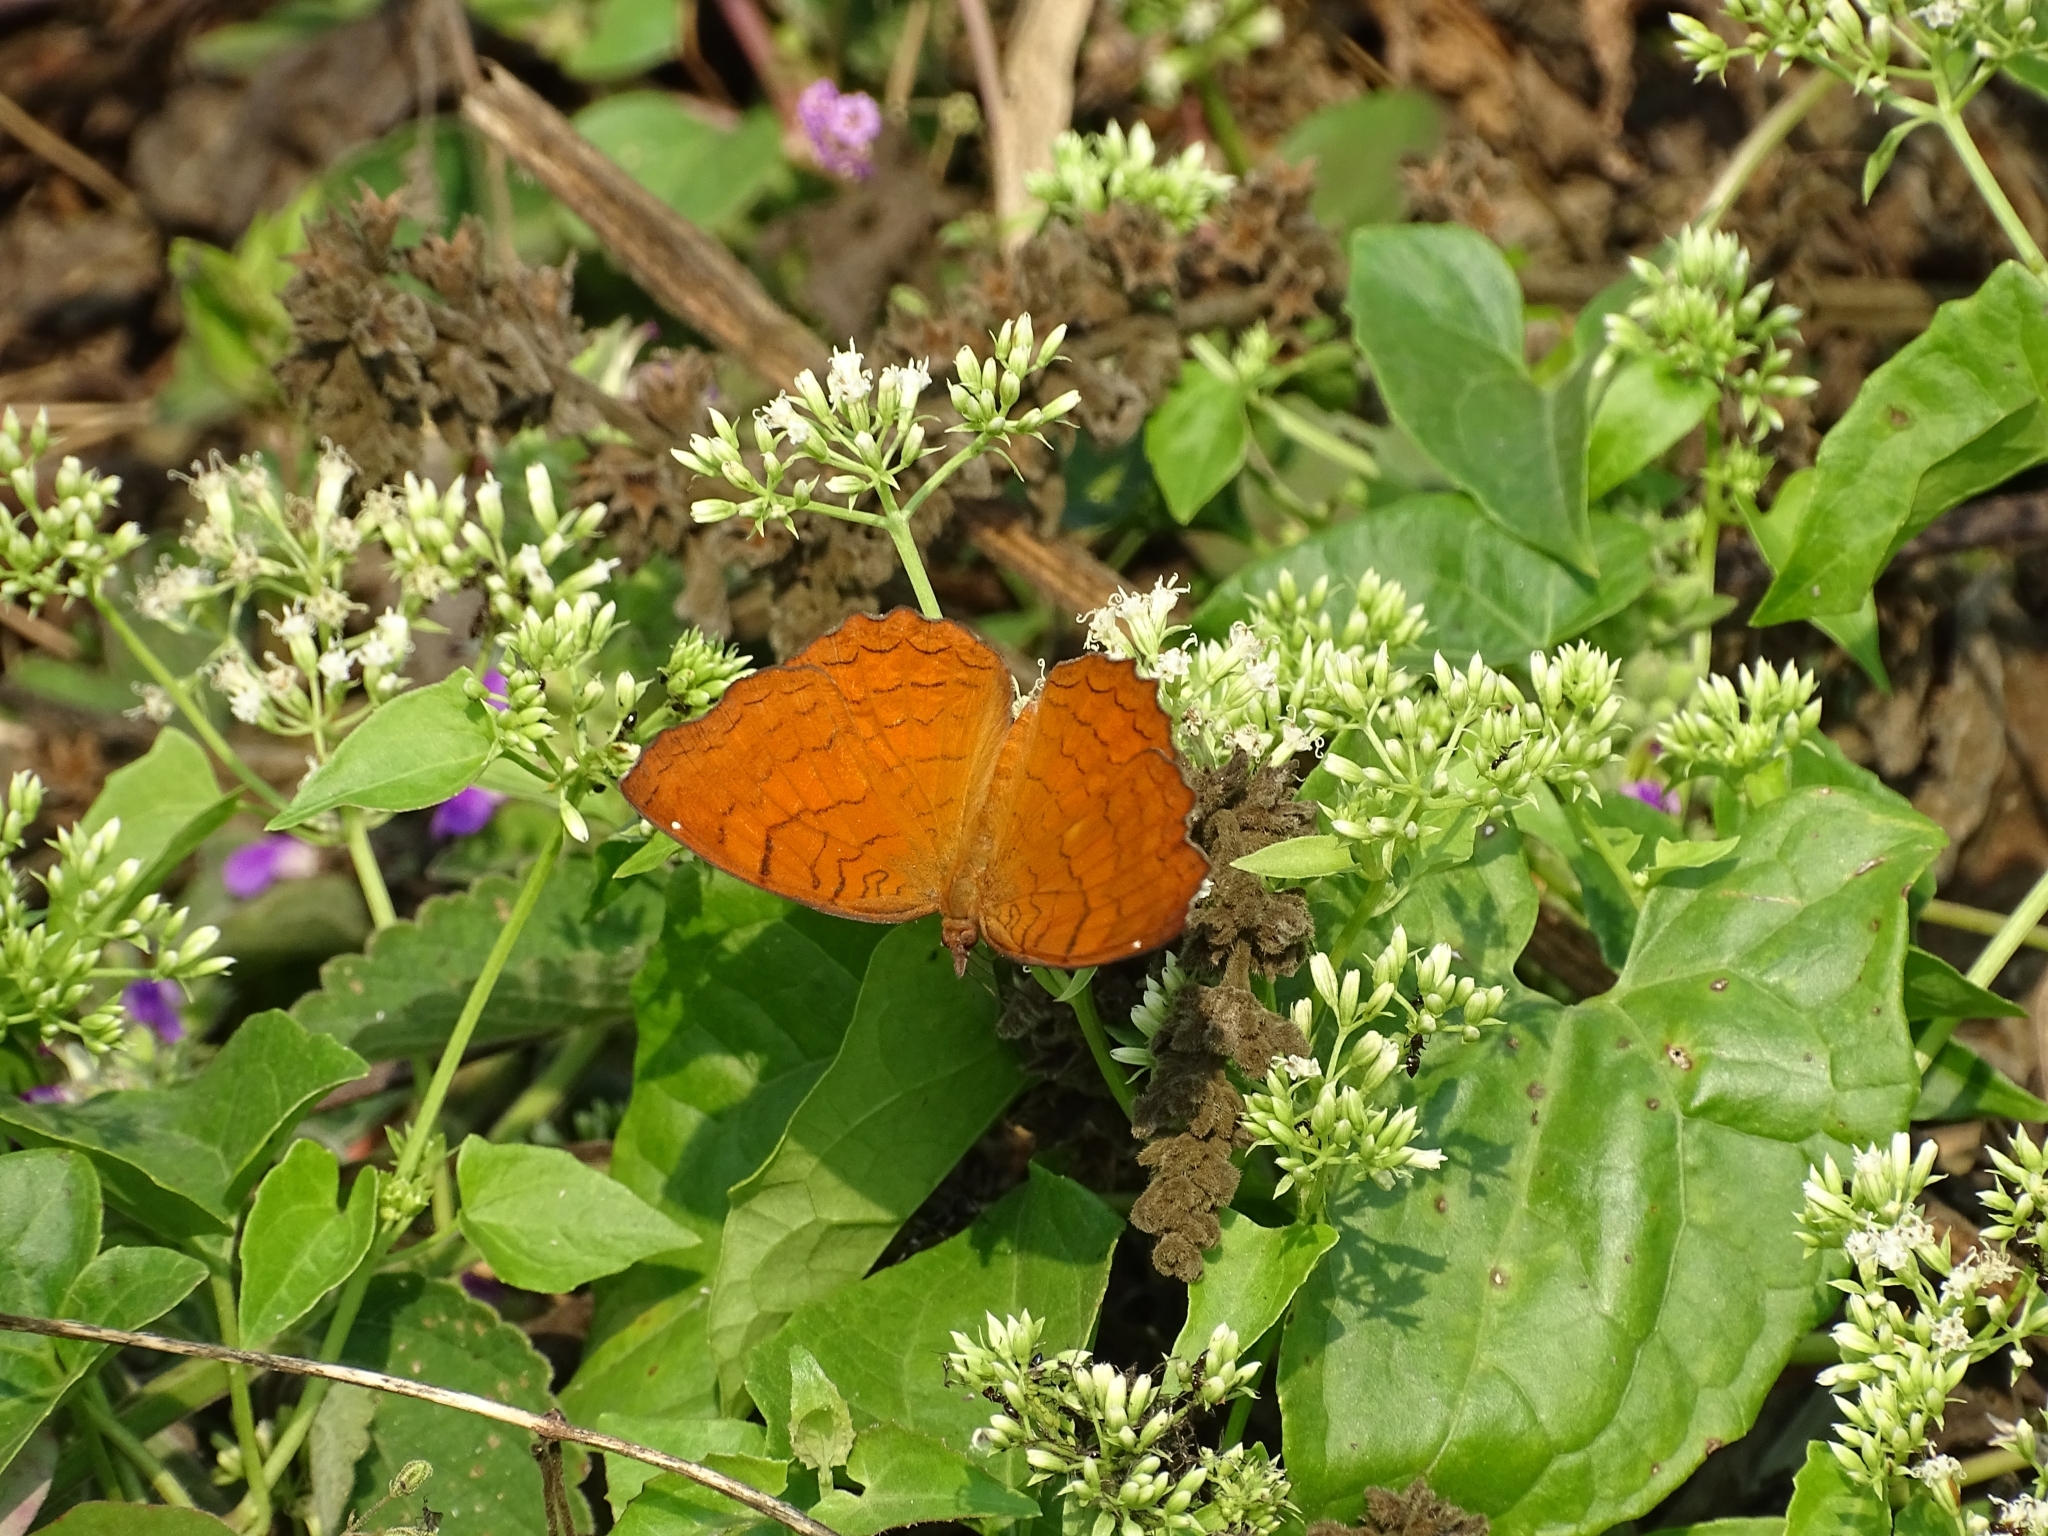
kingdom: Animalia
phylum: Arthropoda
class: Insecta
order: Lepidoptera
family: Nymphalidae
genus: Ariadne
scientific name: Ariadne ariadne
